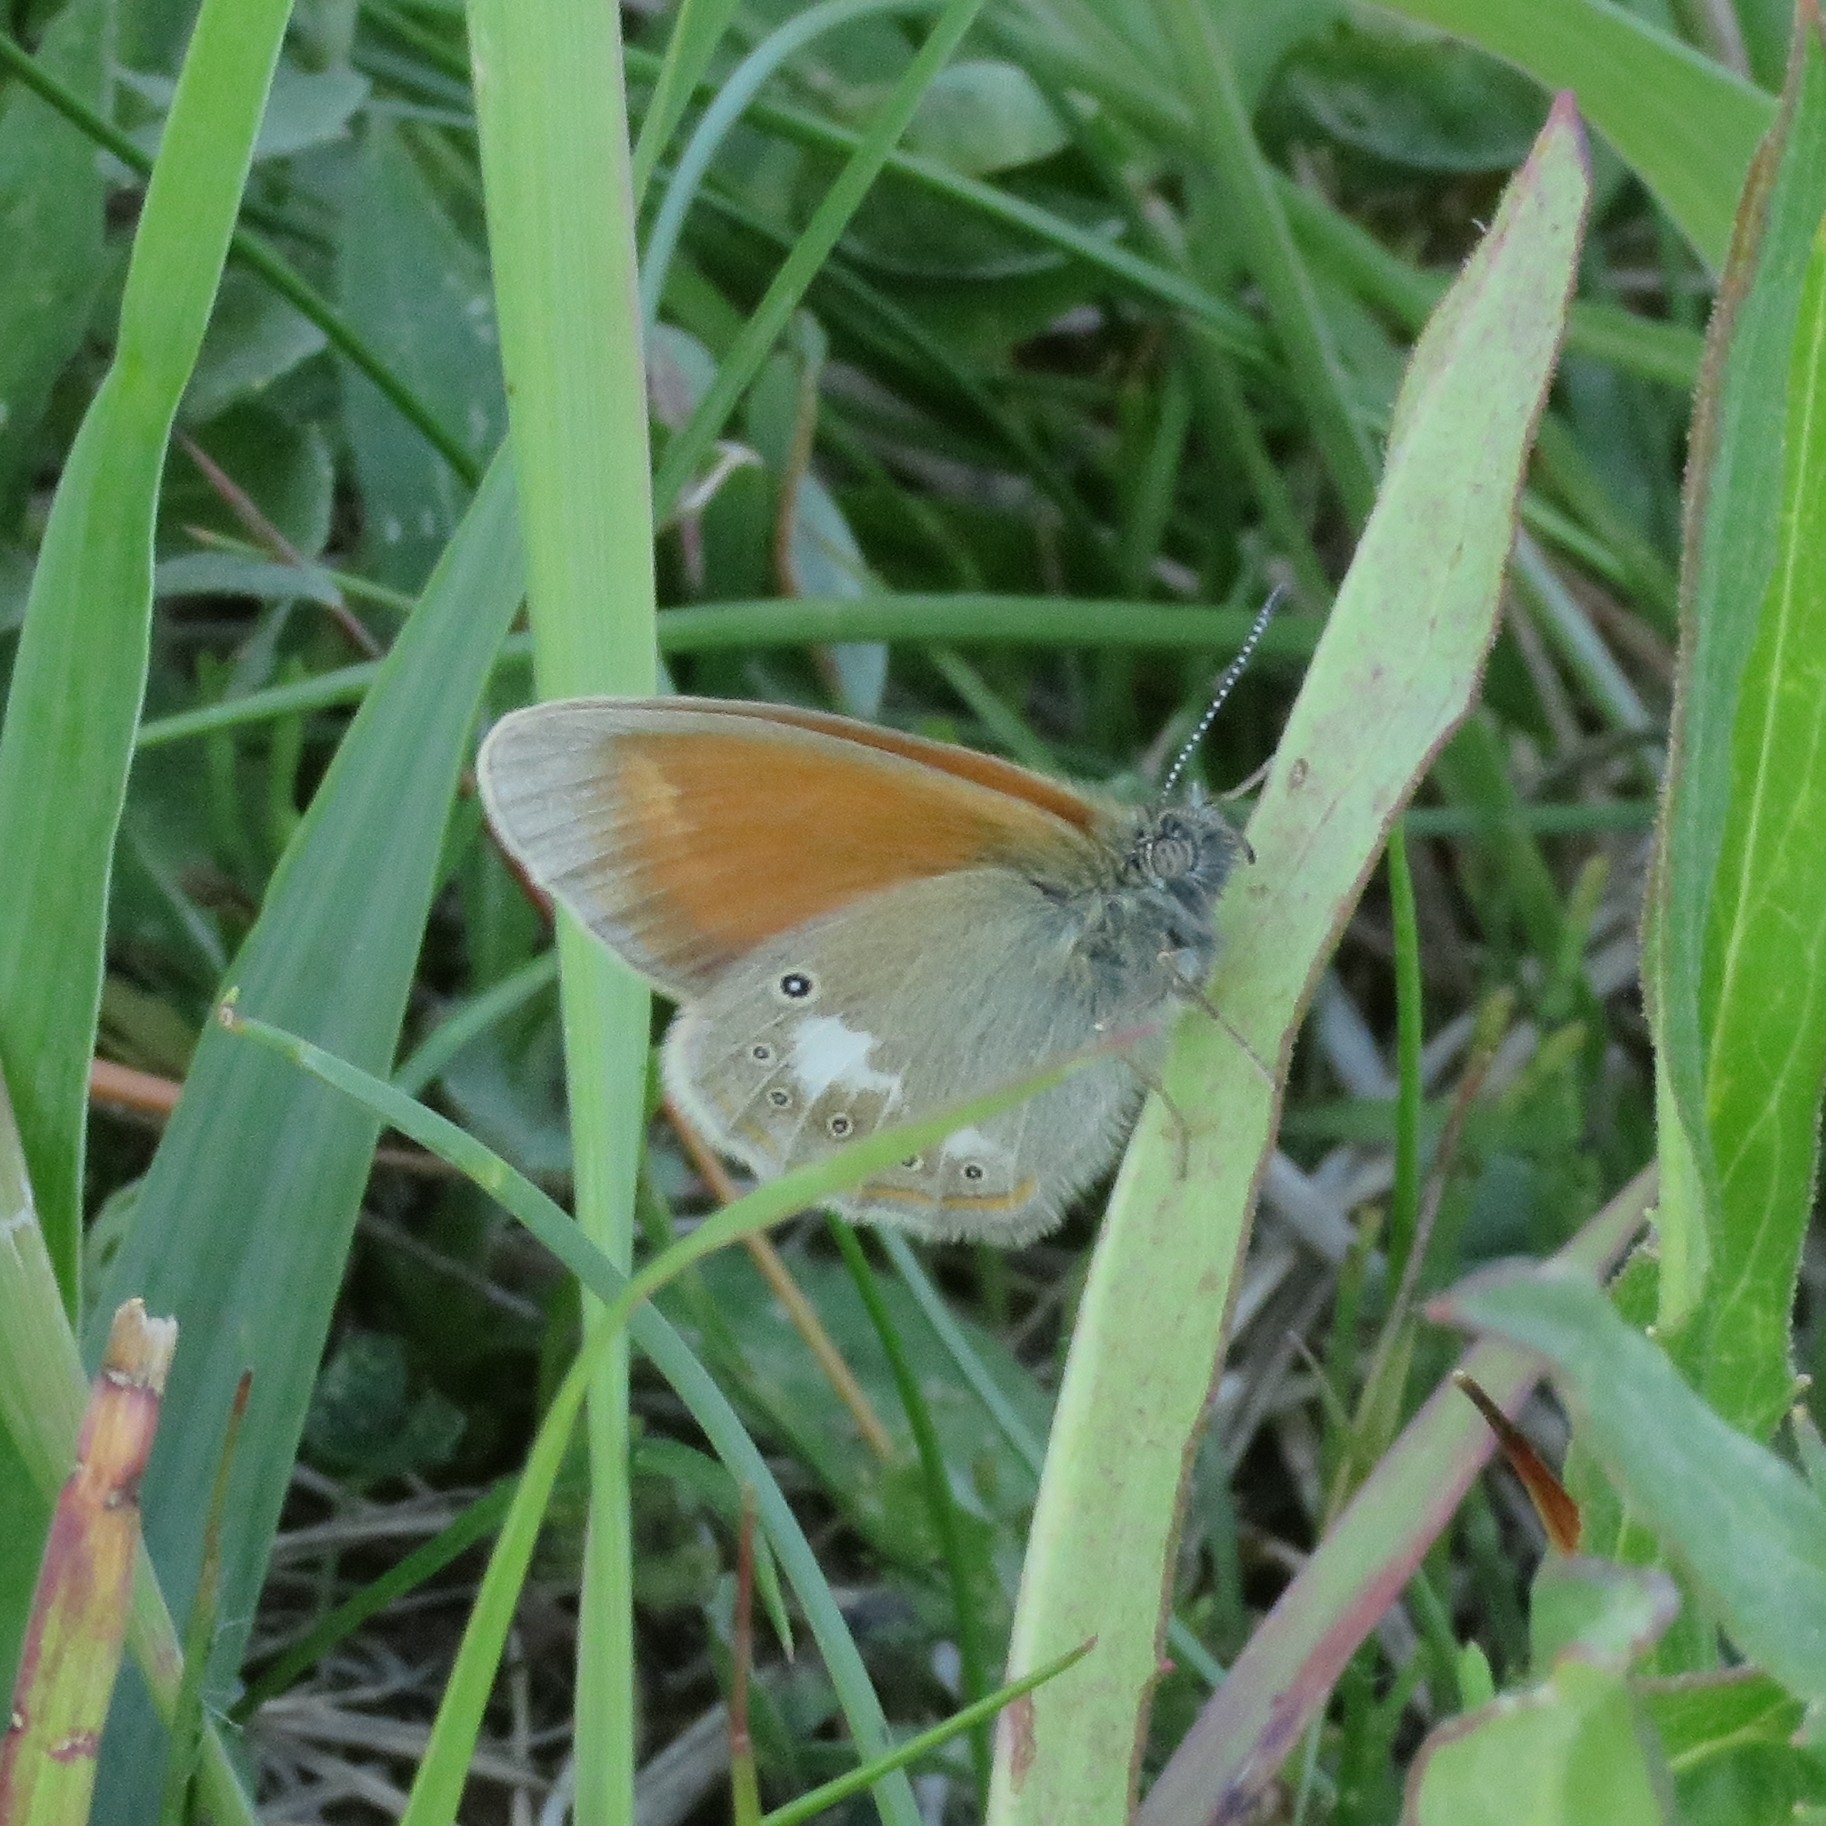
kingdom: Animalia
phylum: Arthropoda
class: Insecta
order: Lepidoptera
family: Nymphalidae
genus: Coenonympha
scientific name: Coenonympha iphis
